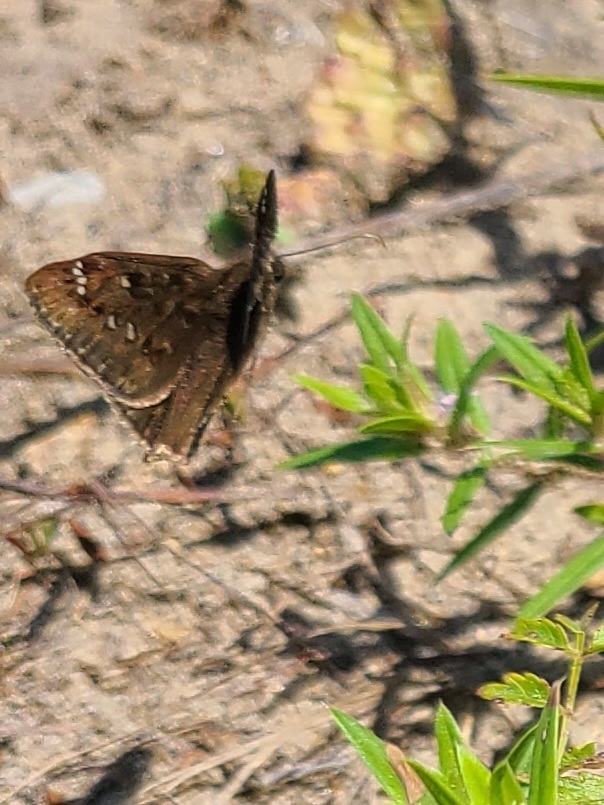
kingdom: Animalia
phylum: Arthropoda
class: Insecta
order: Lepidoptera
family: Hesperiidae
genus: Erynnis
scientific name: Erynnis horatius
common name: Horace's duskywing
